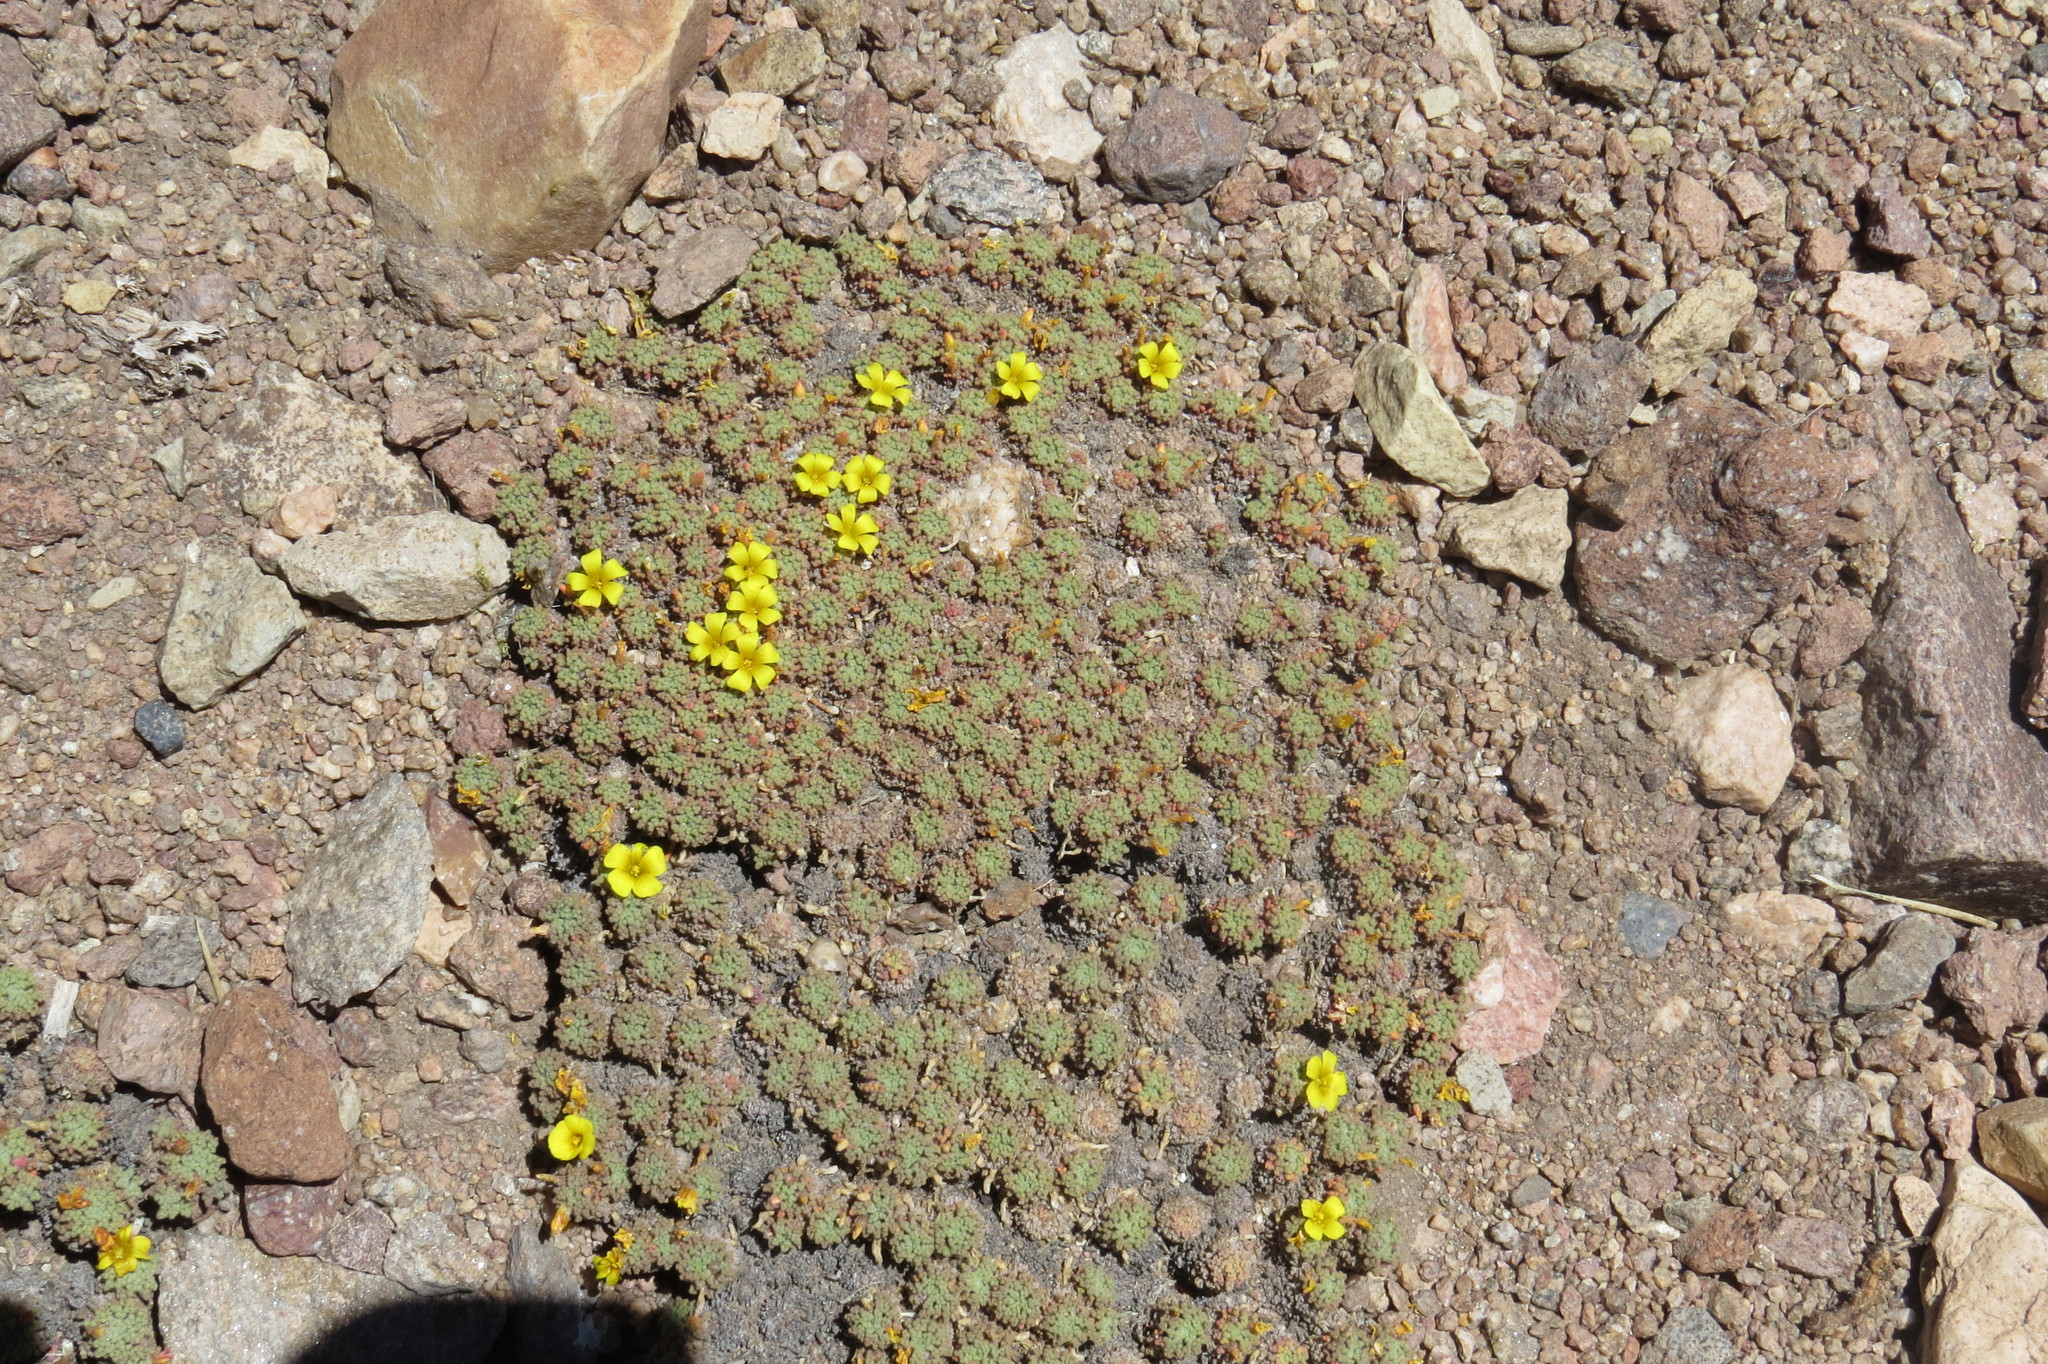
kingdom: Plantae
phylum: Tracheophyta
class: Magnoliopsida
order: Oxalidales
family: Oxalidaceae
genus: Oxalis
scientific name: Oxalis erythrorhiza
